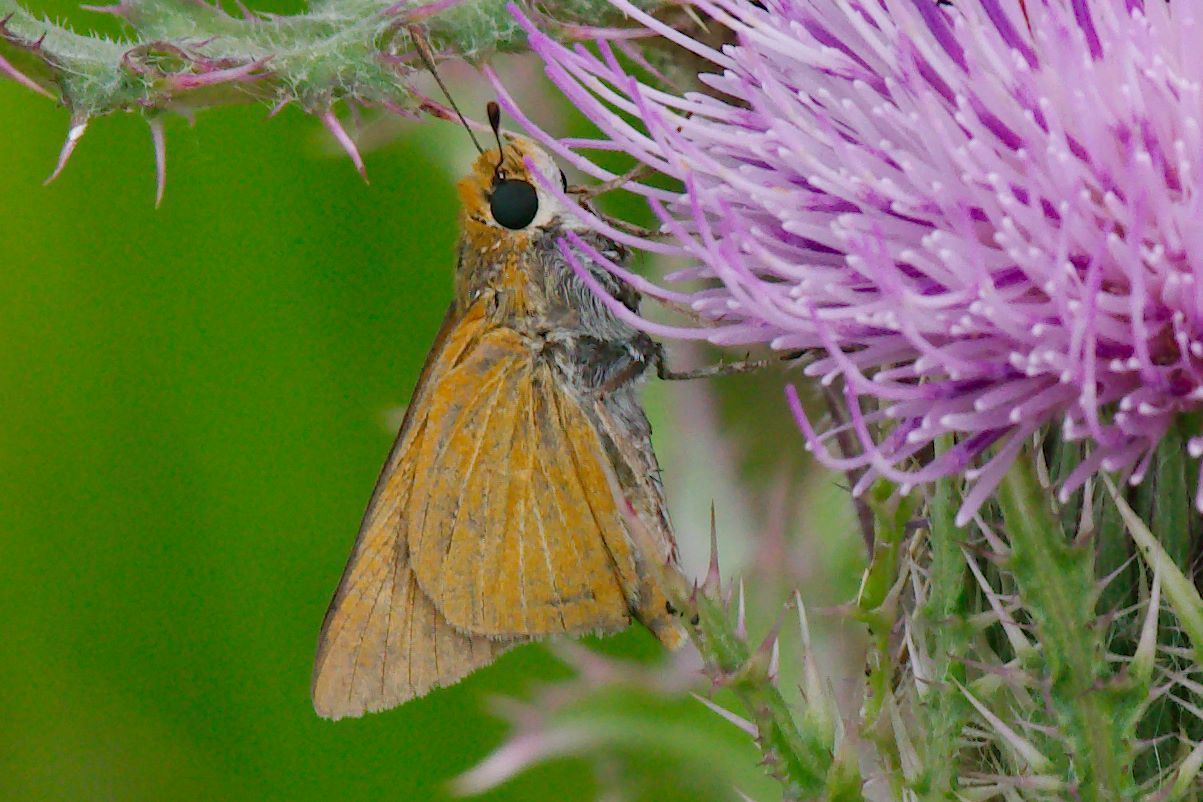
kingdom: Animalia
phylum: Arthropoda
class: Insecta
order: Lepidoptera
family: Hesperiidae
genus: Euphyes
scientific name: Euphyes arpa
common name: Palmetto skipper
